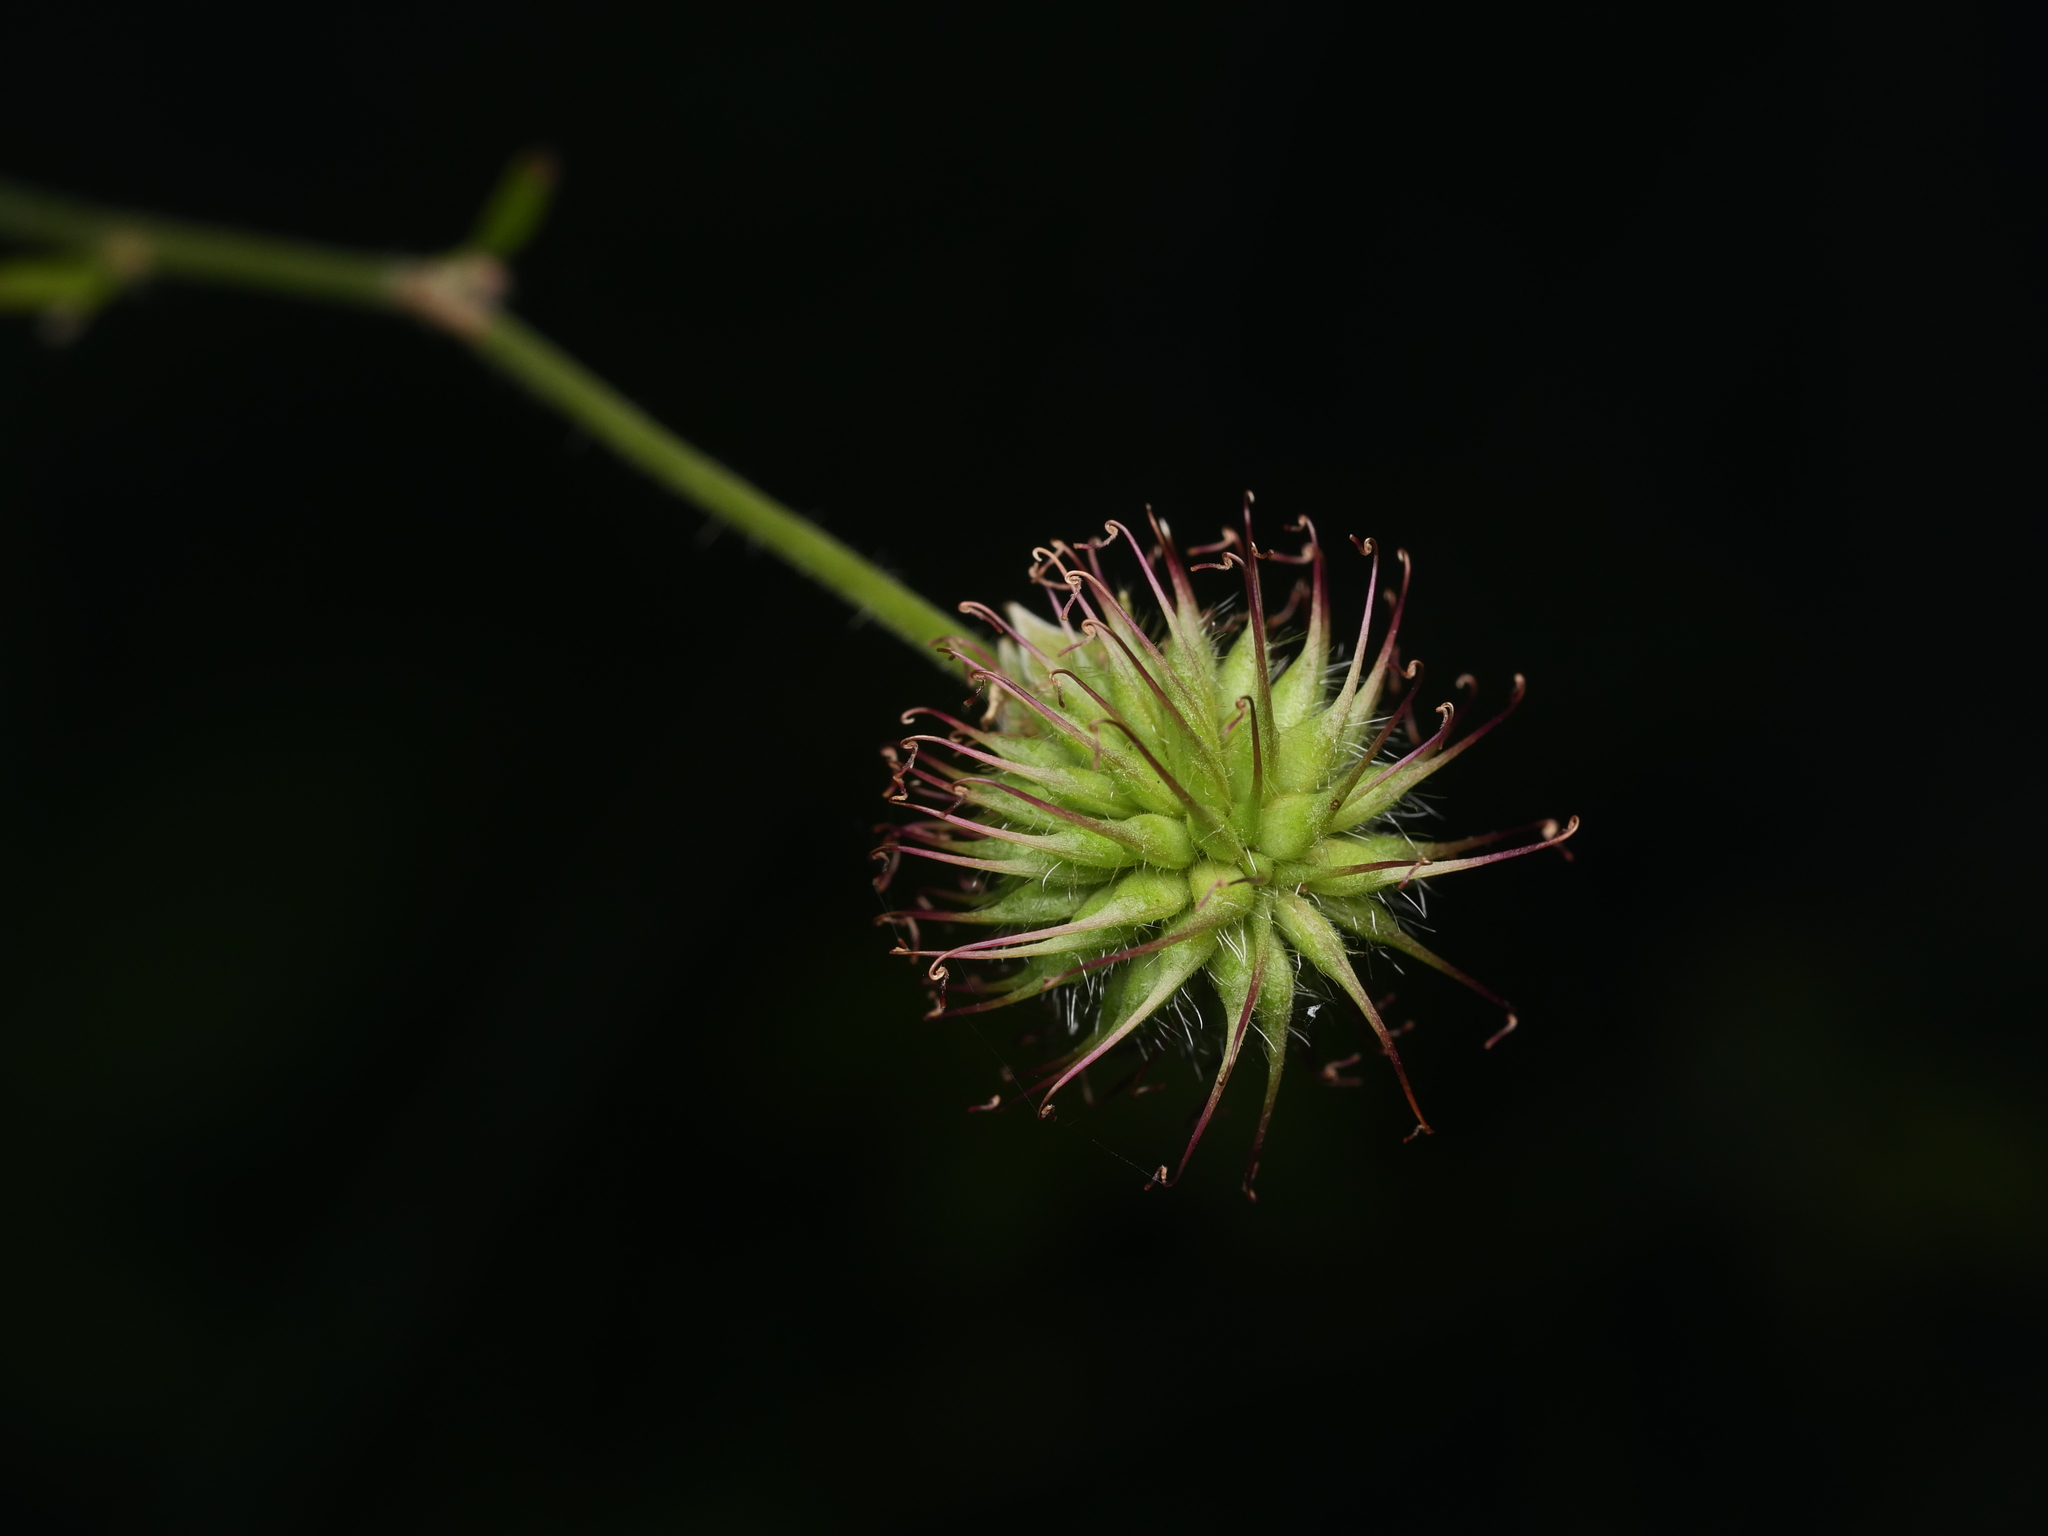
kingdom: Plantae
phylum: Tracheophyta
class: Magnoliopsida
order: Rosales
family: Rosaceae
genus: Geum
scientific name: Geum urbanum
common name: Wood avens
